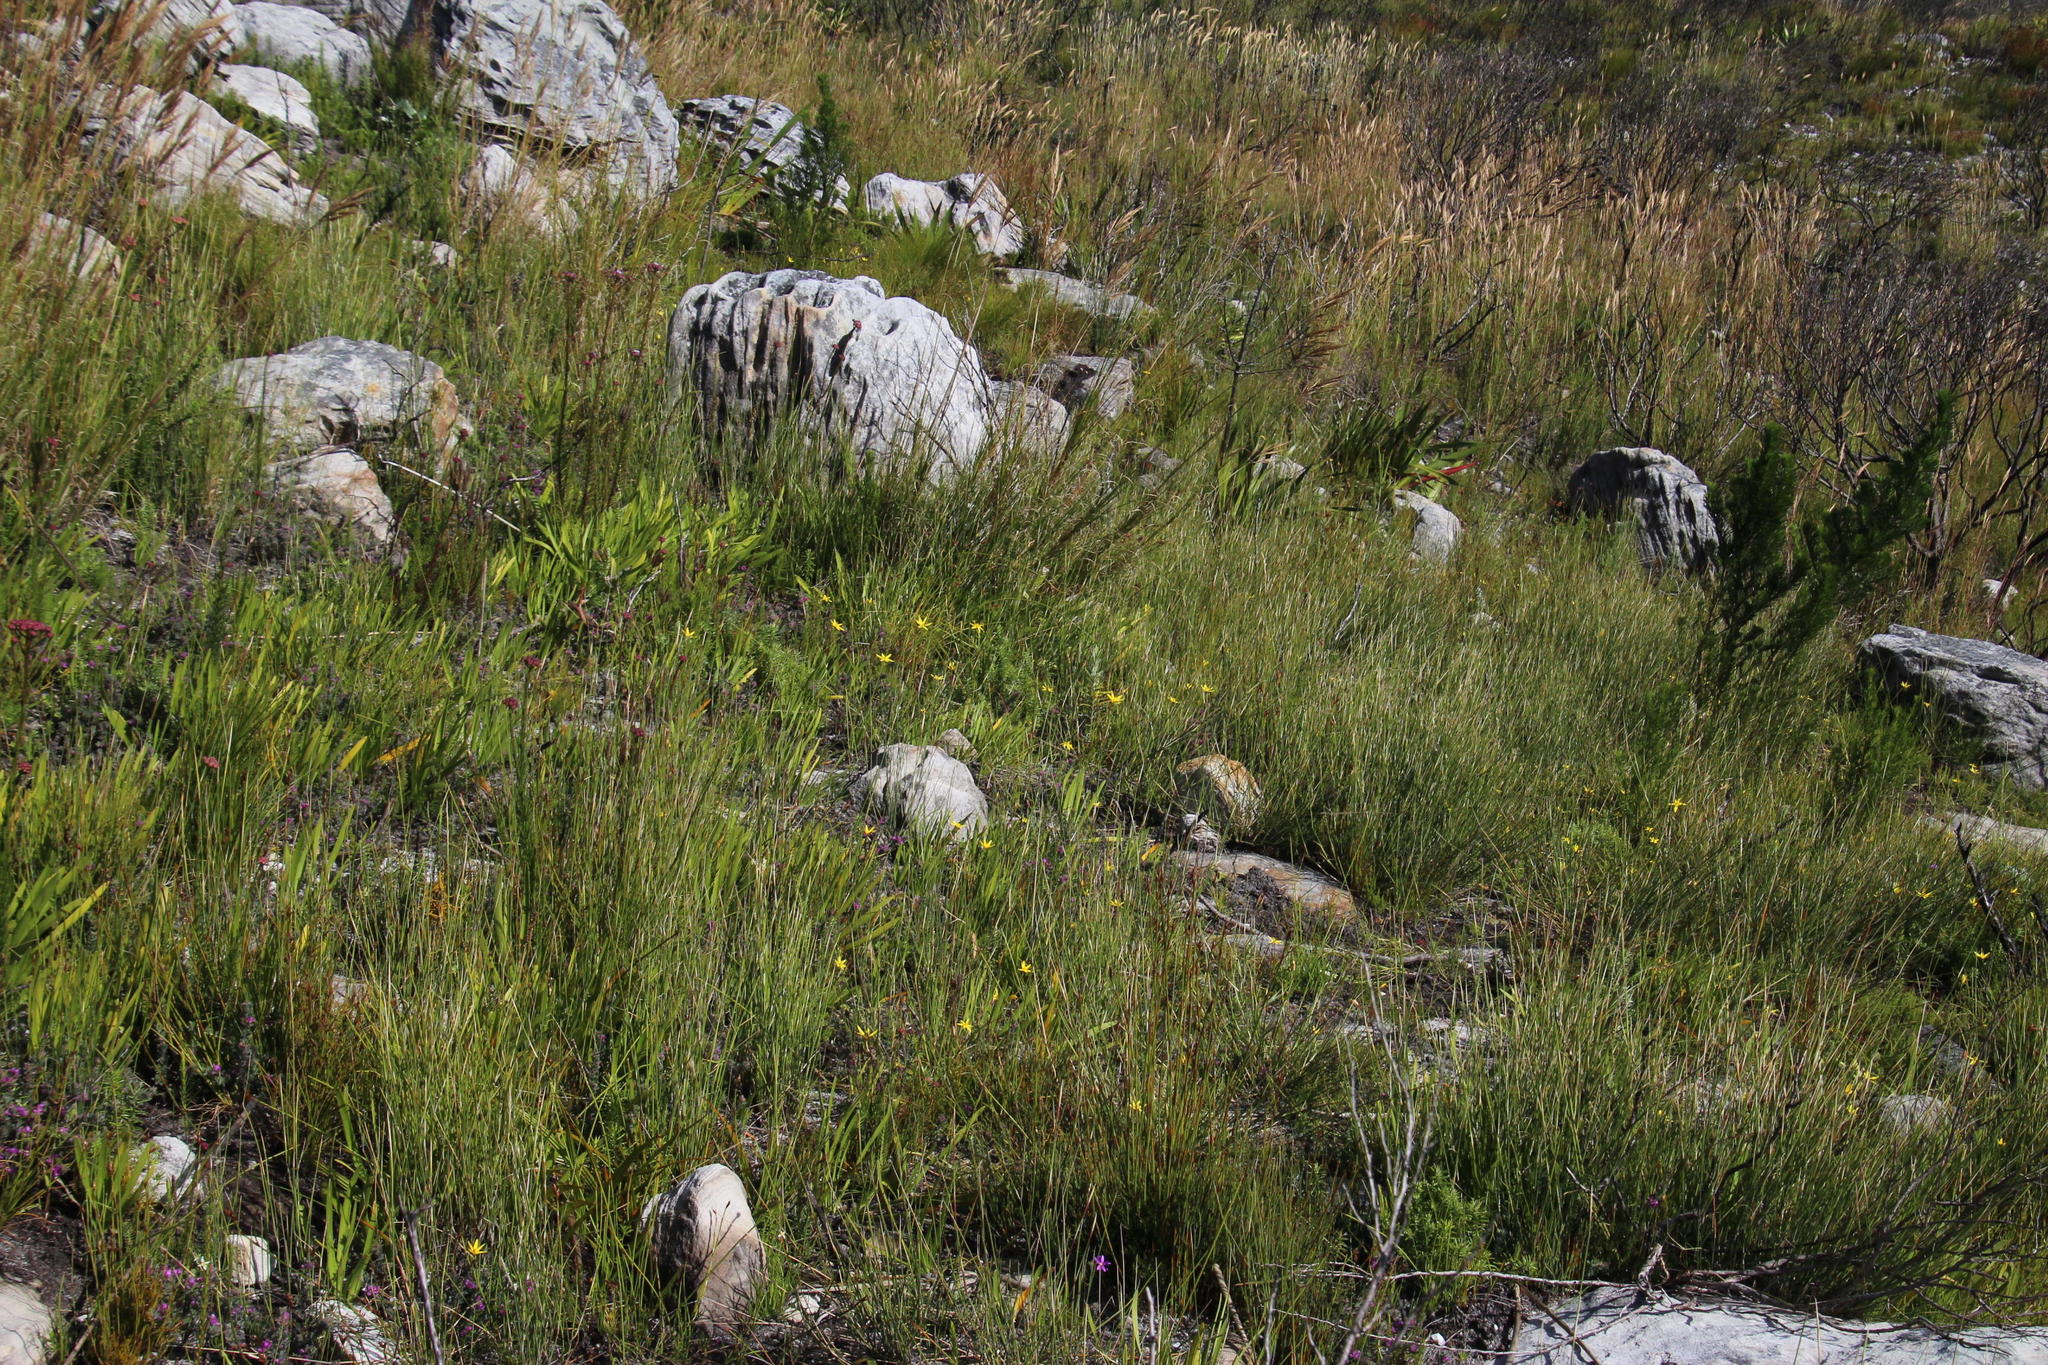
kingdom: Plantae
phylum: Tracheophyta
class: Liliopsida
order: Asparagales
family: Hypoxidaceae
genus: Pauridia
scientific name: Pauridia capensis
